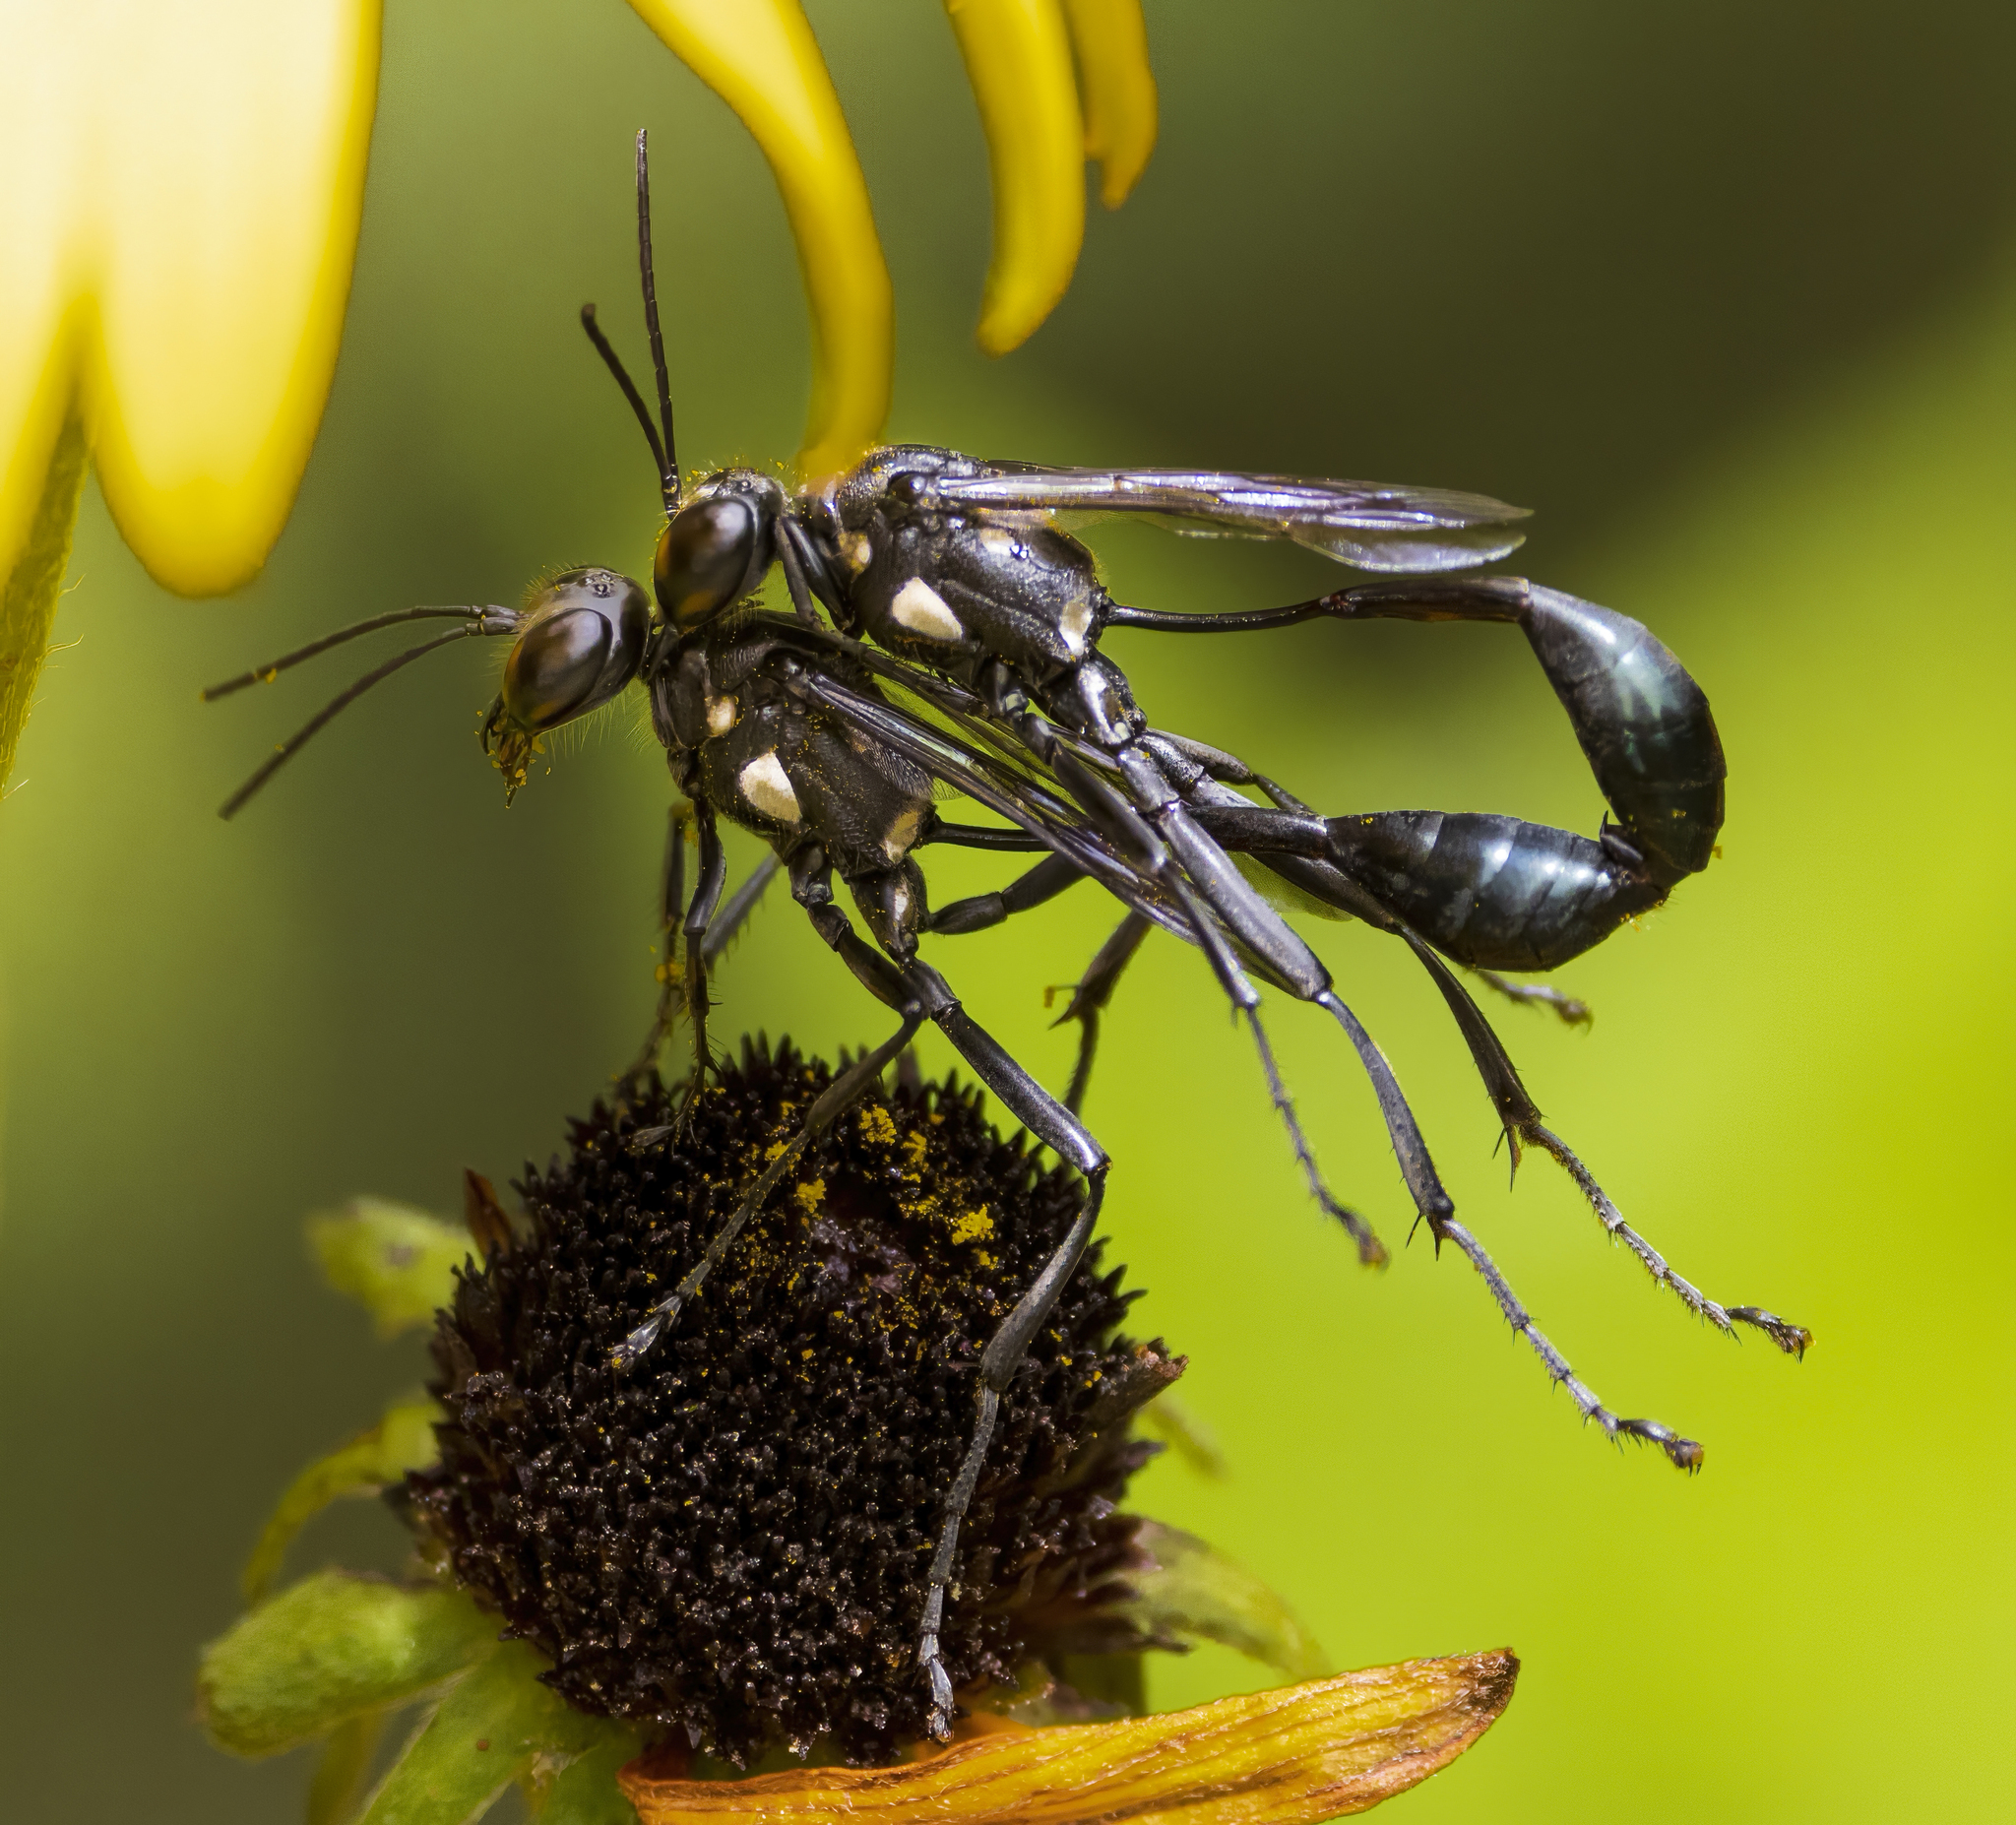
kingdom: Animalia
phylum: Arthropoda
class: Insecta
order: Hymenoptera
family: Sphecidae
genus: Eremnophila
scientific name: Eremnophila aureonotata
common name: Gold-marked thread-waisted wasp
